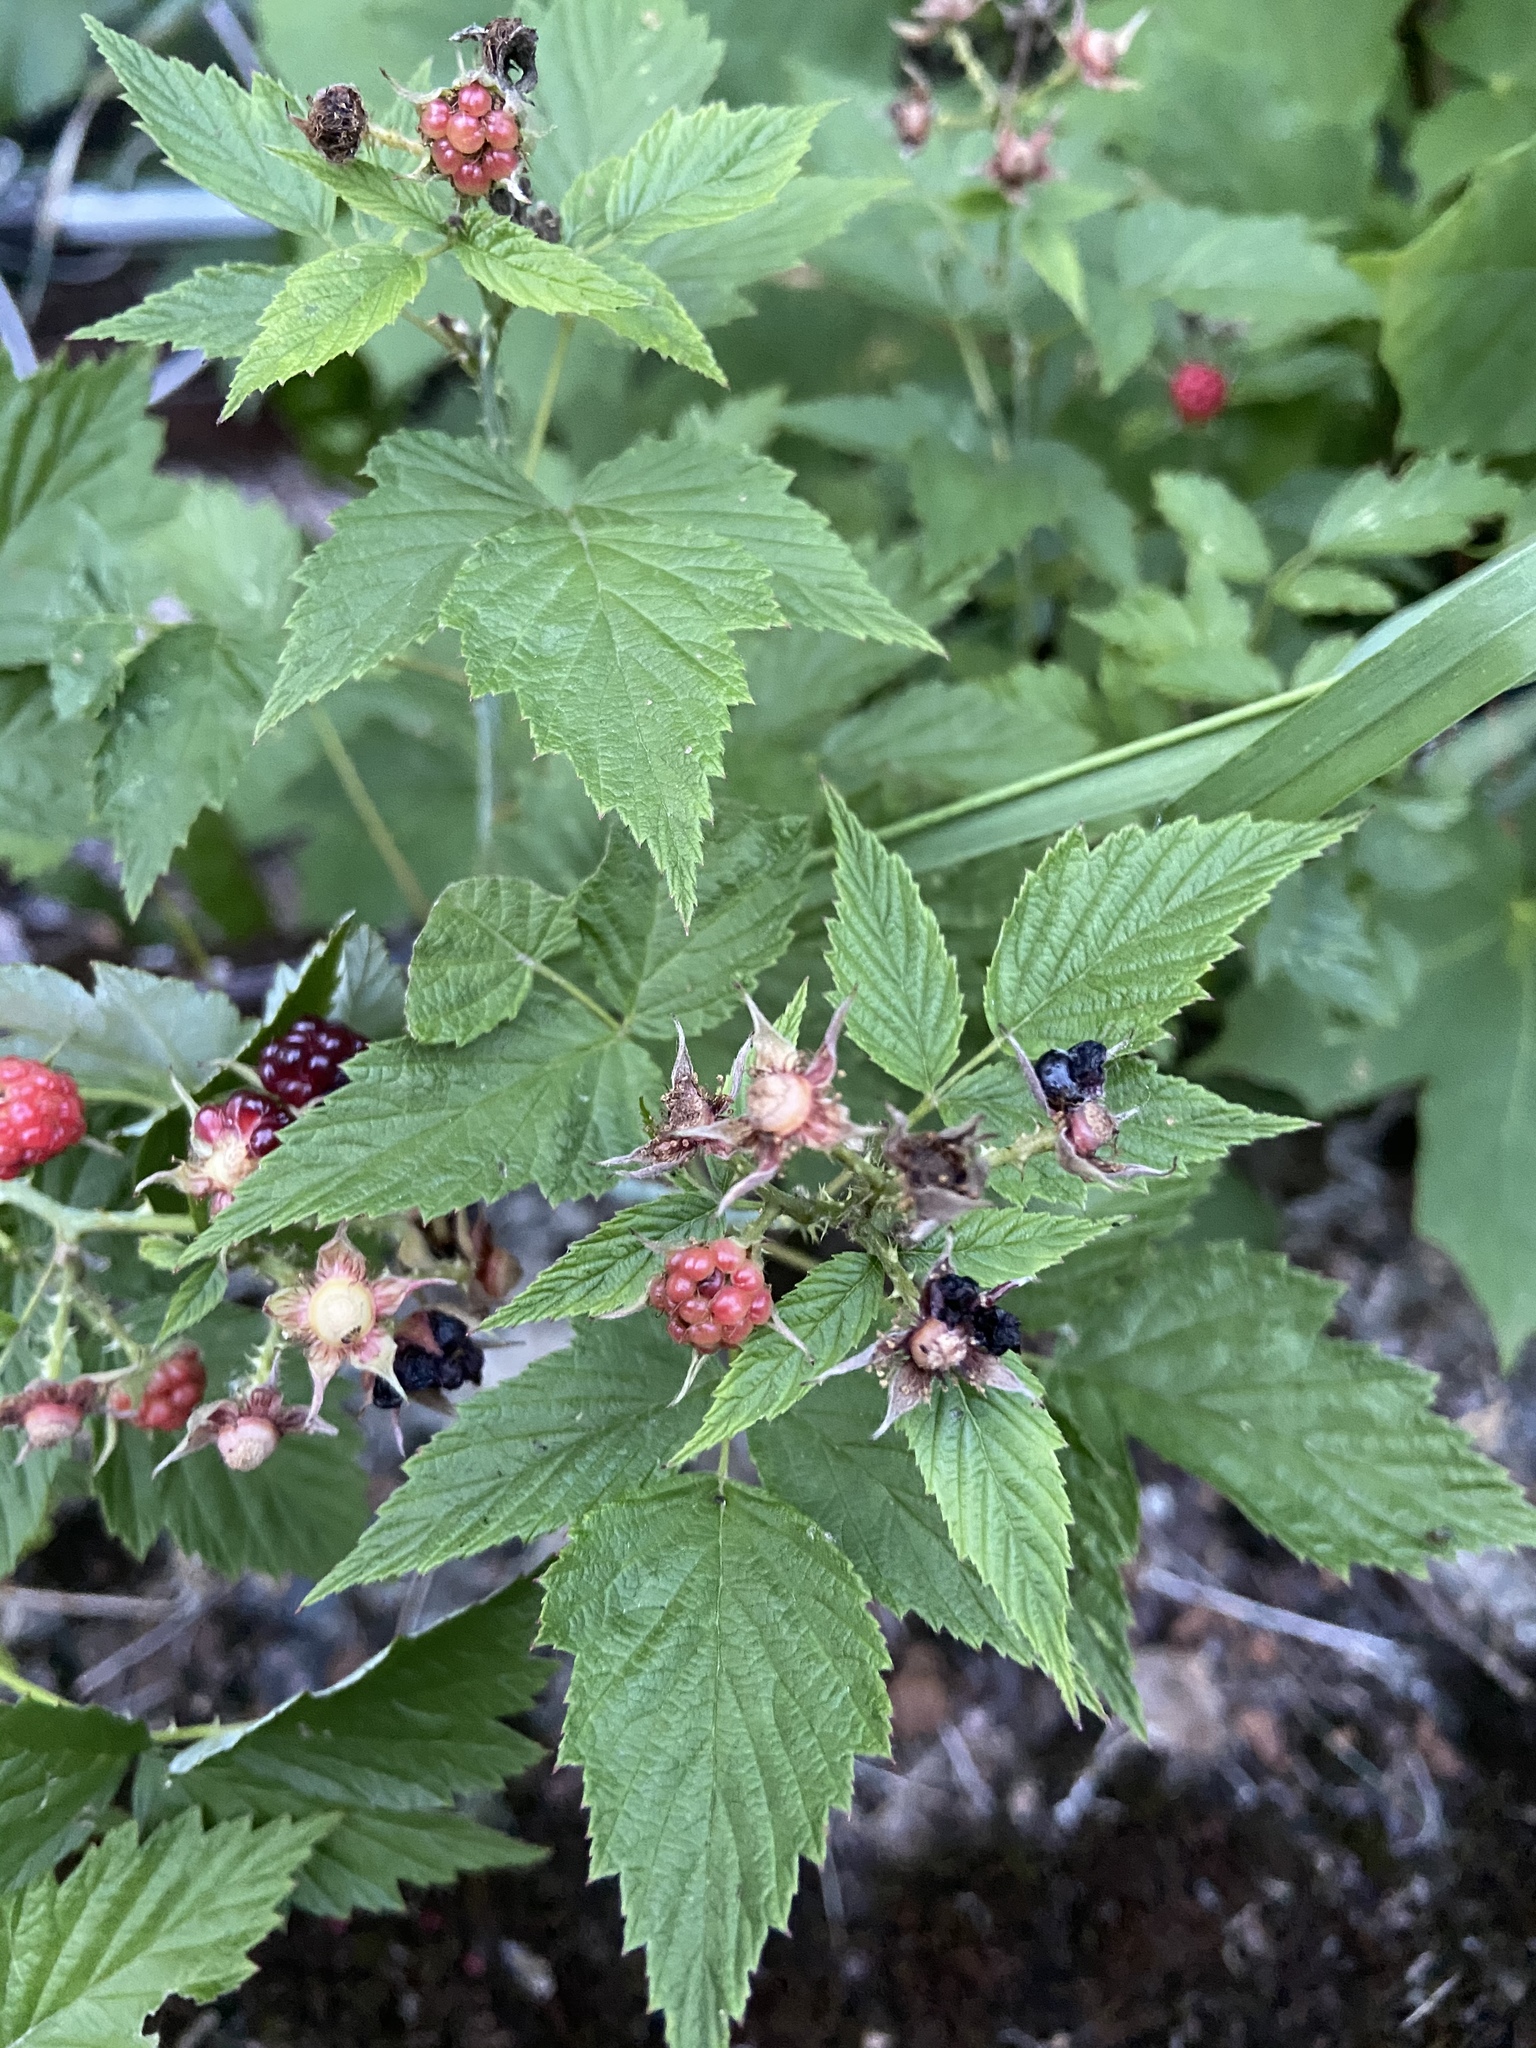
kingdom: Plantae
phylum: Tracheophyta
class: Magnoliopsida
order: Rosales
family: Rosaceae
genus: Rubus
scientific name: Rubus occidentalis
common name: Black raspberry
